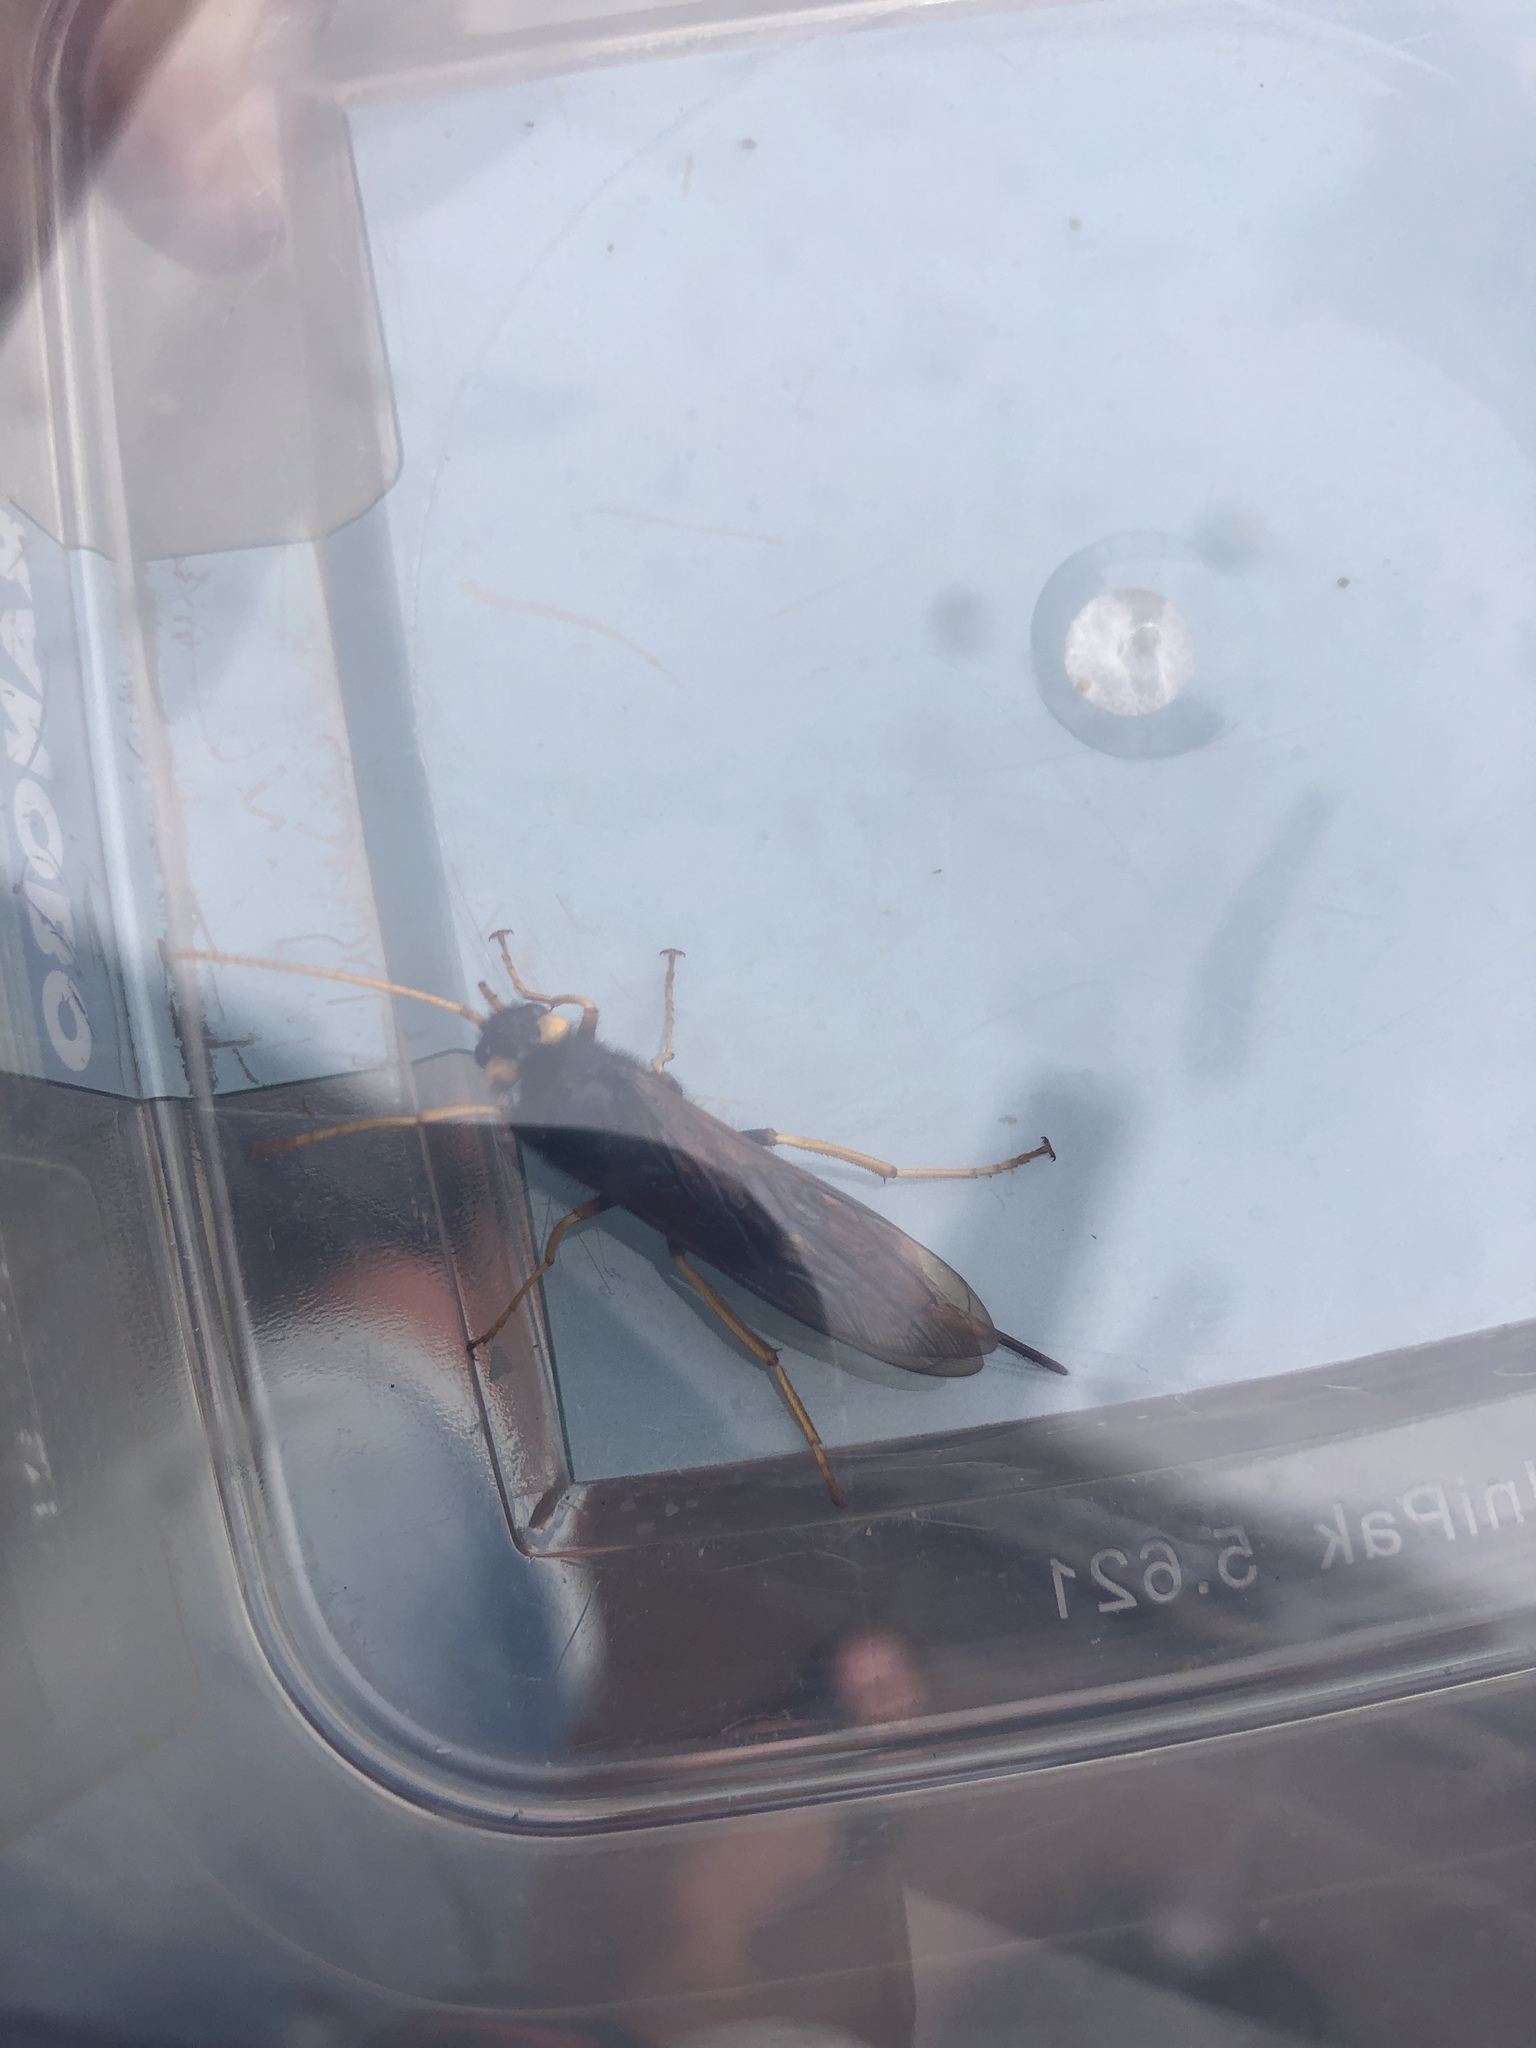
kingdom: Animalia
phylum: Arthropoda
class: Insecta
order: Hymenoptera
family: Siricidae
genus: Urocerus
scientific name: Urocerus gigas
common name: Giant woodwasp
